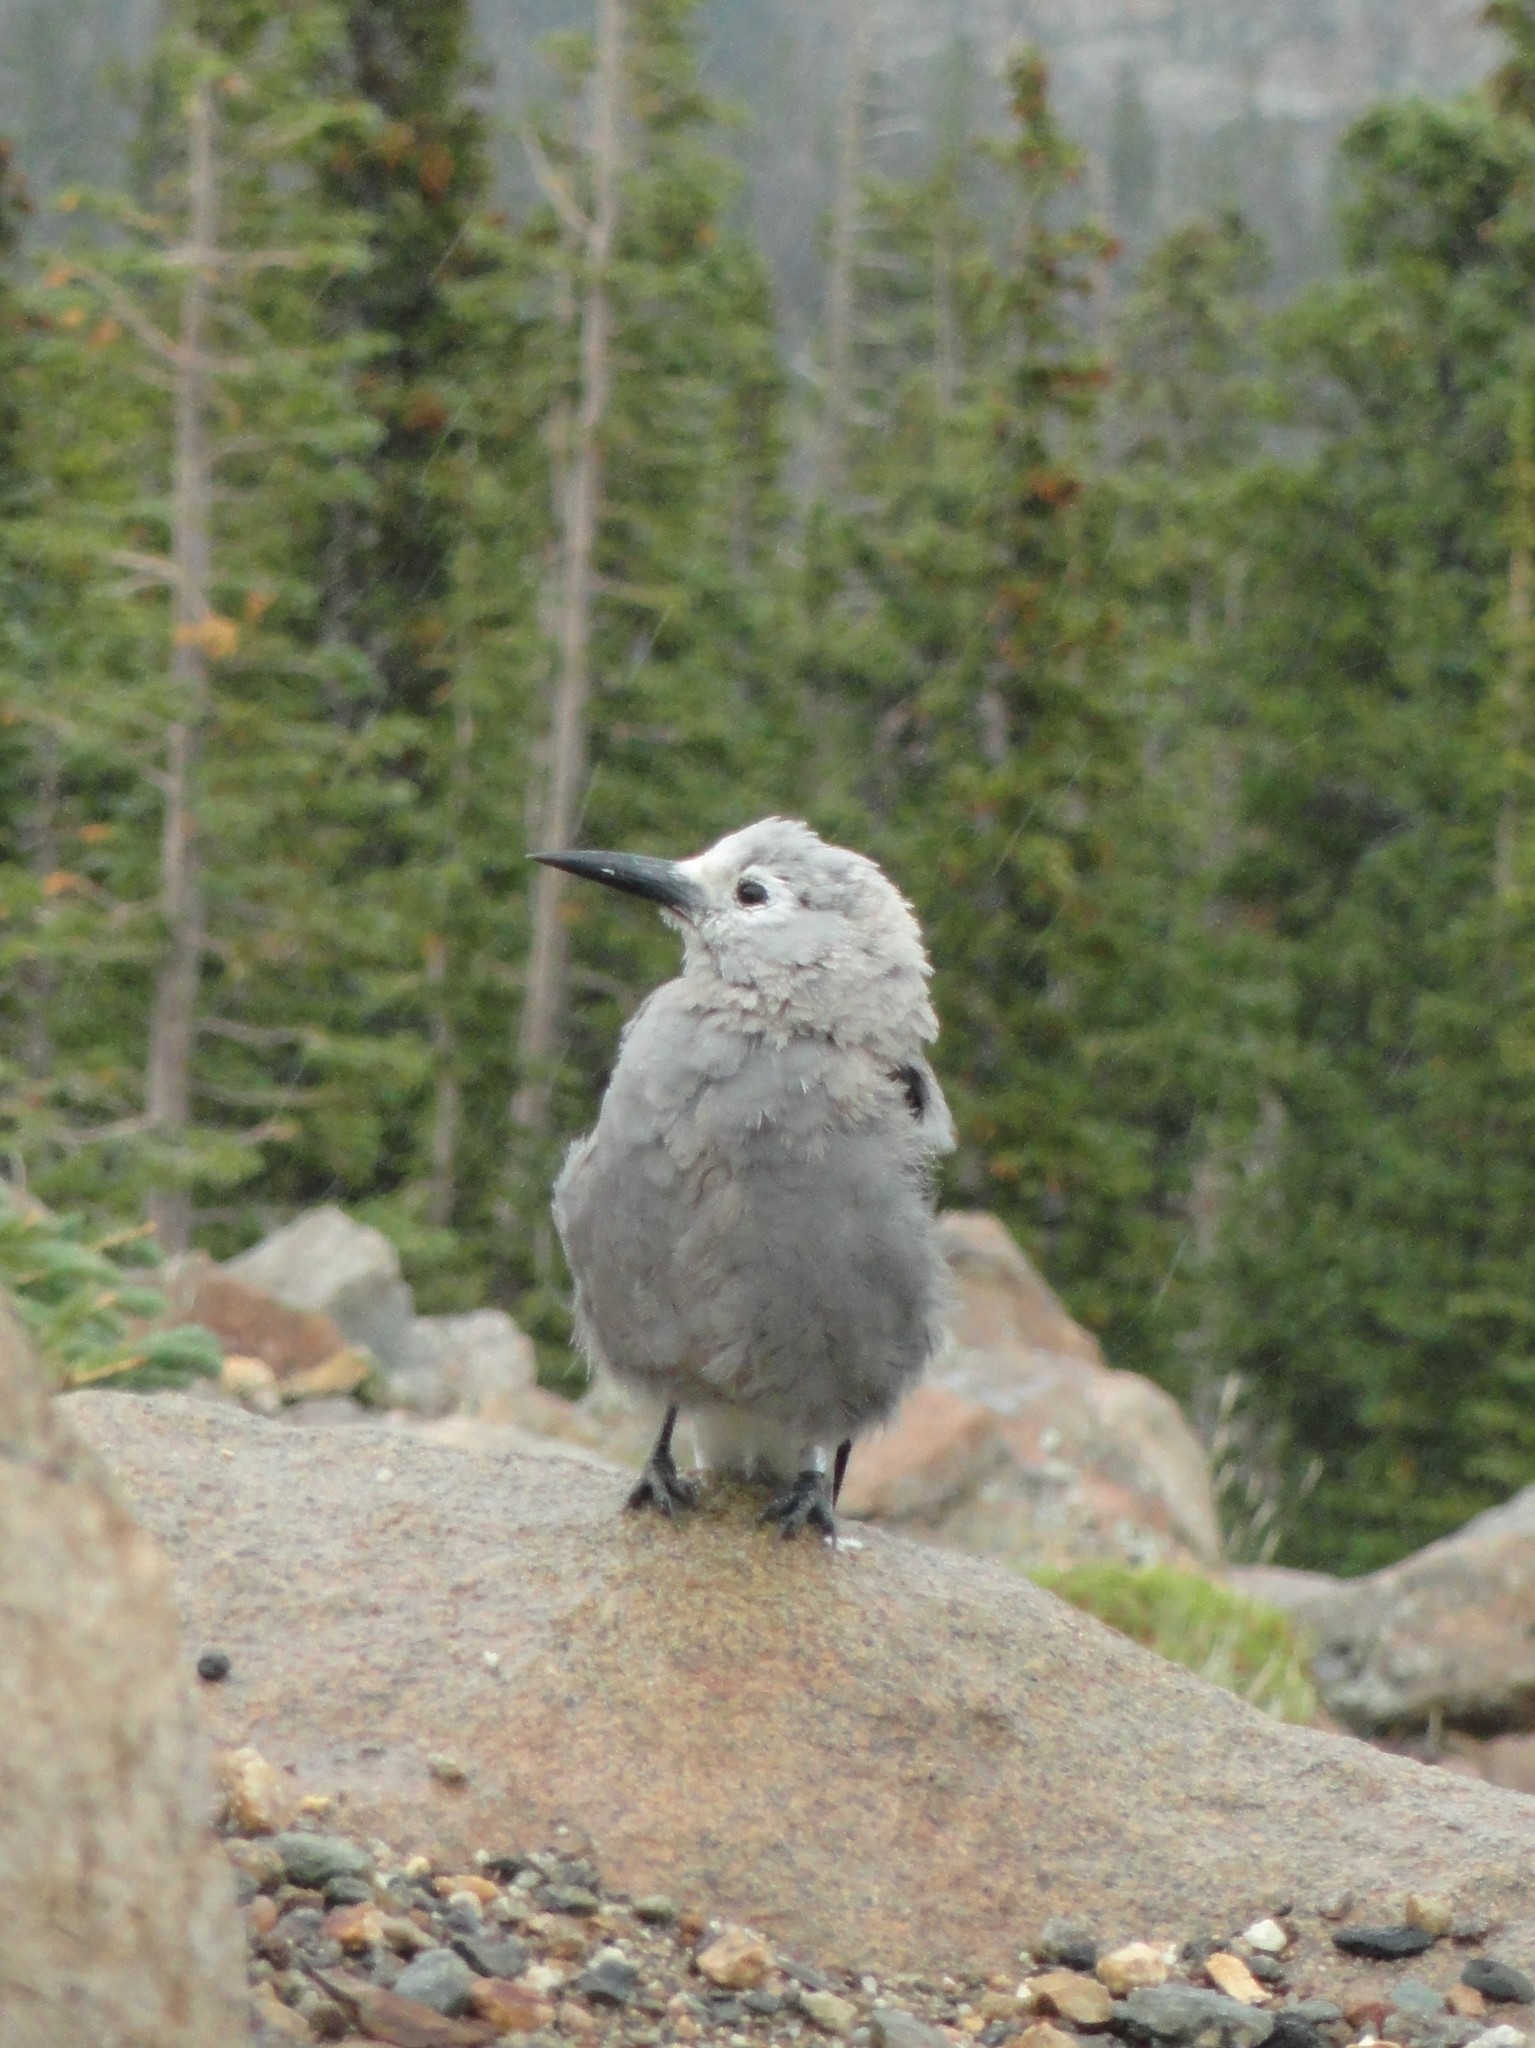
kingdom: Animalia
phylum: Chordata
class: Aves
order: Passeriformes
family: Corvidae
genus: Nucifraga
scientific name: Nucifraga columbiana
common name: Clark's nutcracker
